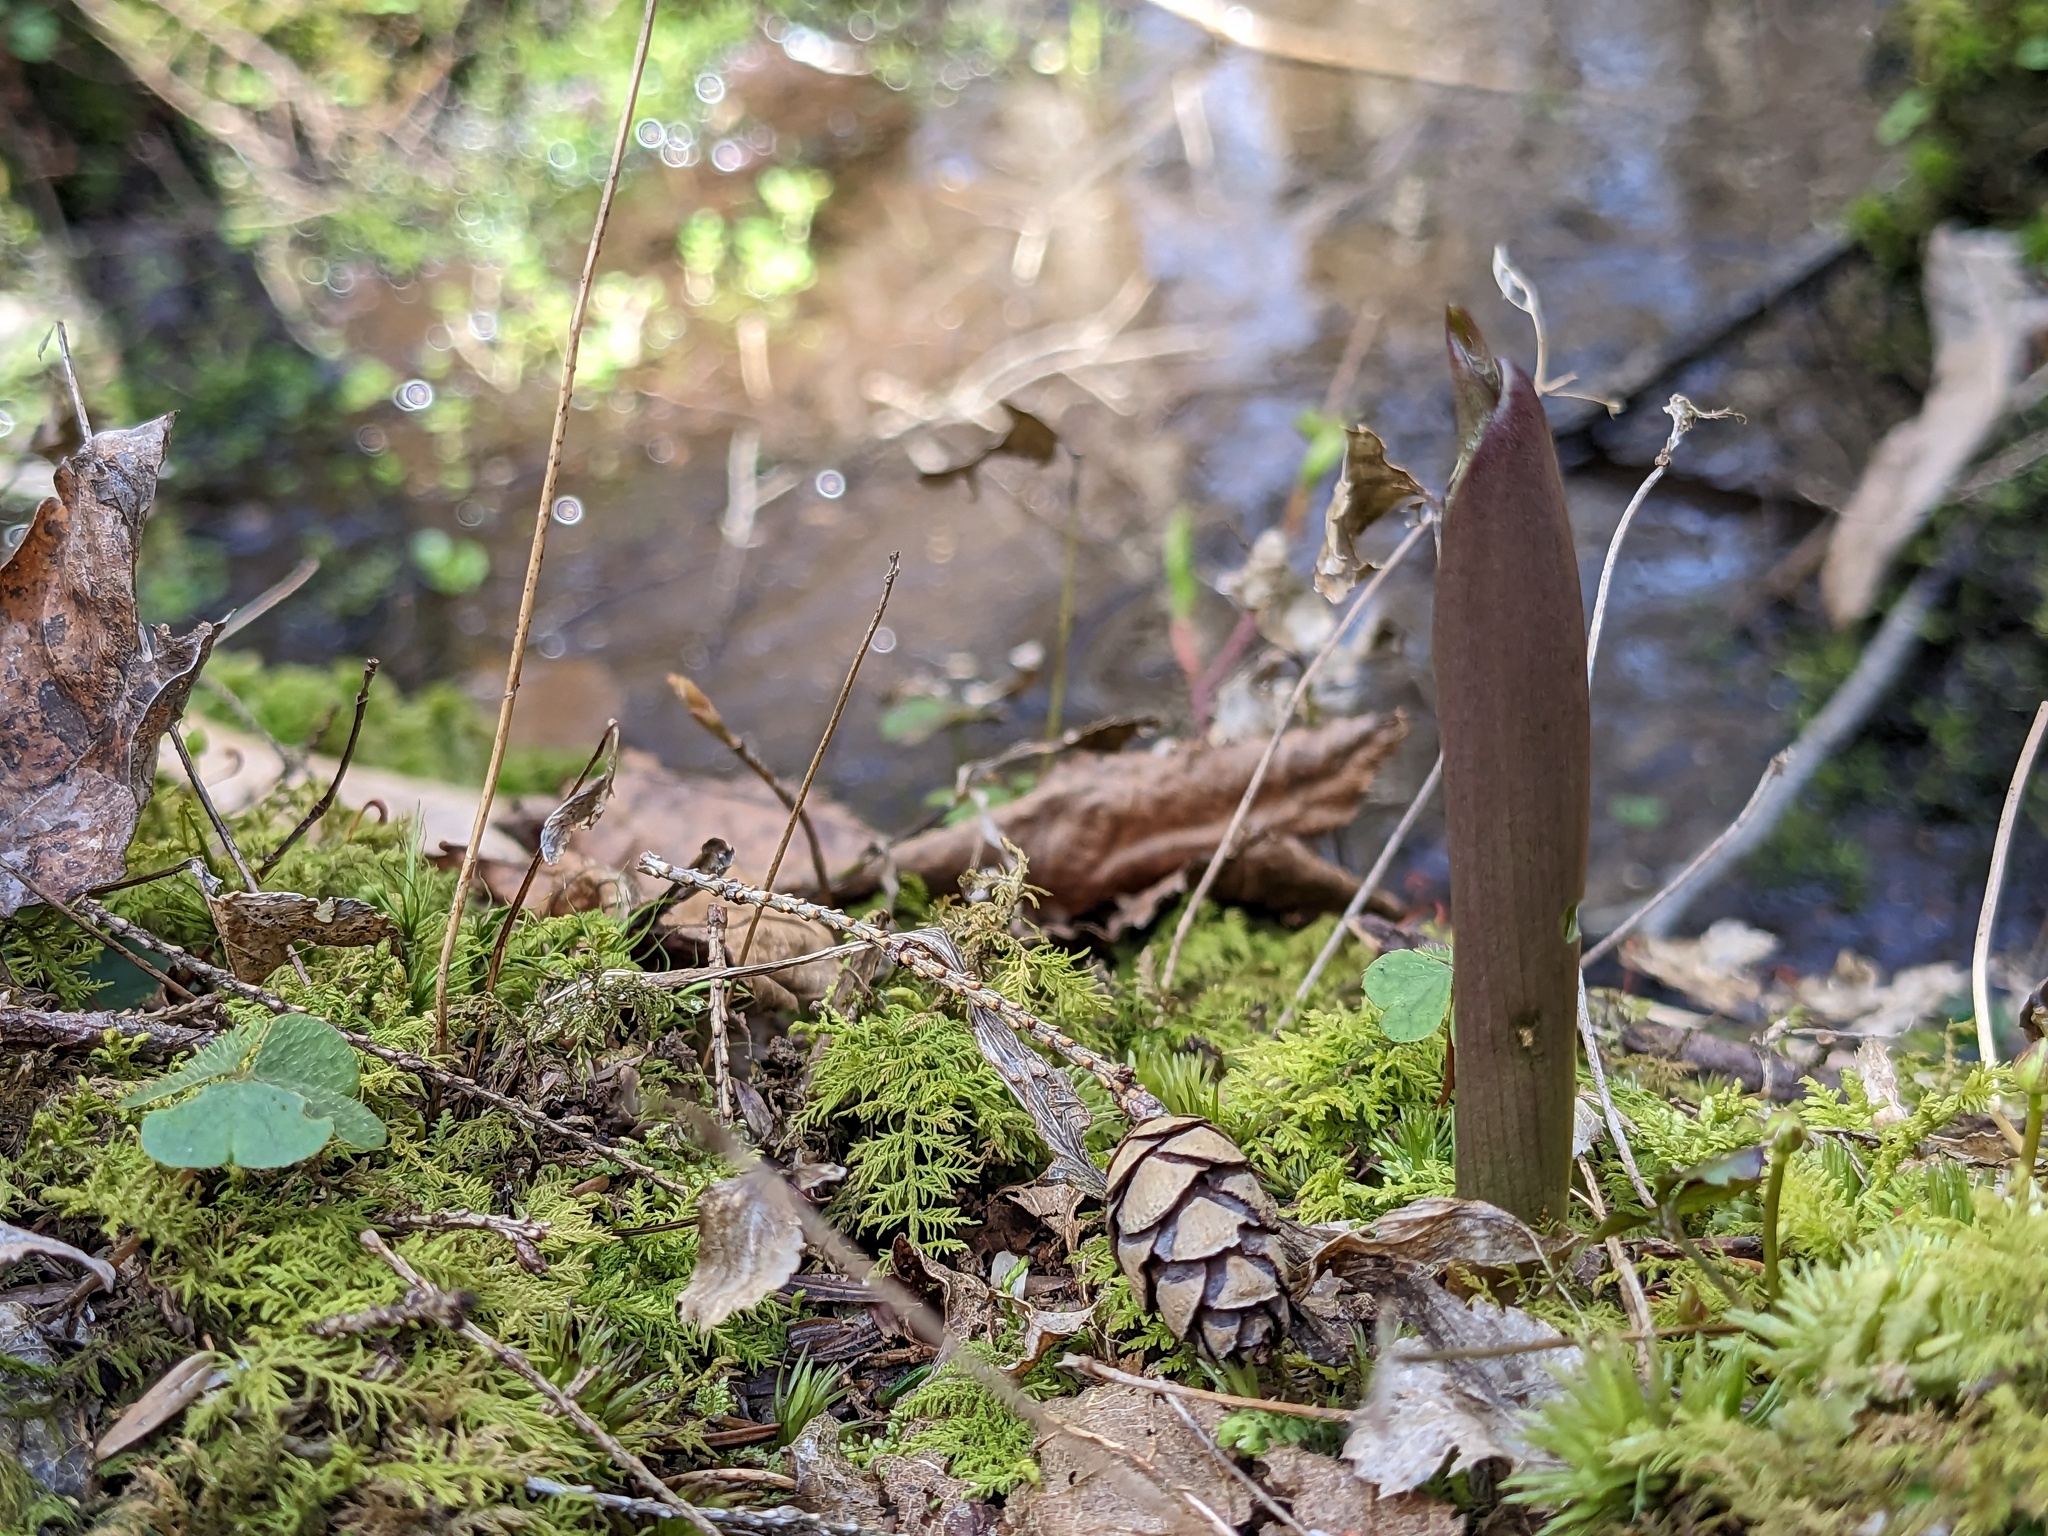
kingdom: Plantae
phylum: Tracheophyta
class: Liliopsida
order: Liliales
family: Liliaceae
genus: Clintonia
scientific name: Clintonia borealis
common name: Yellow clintonia
